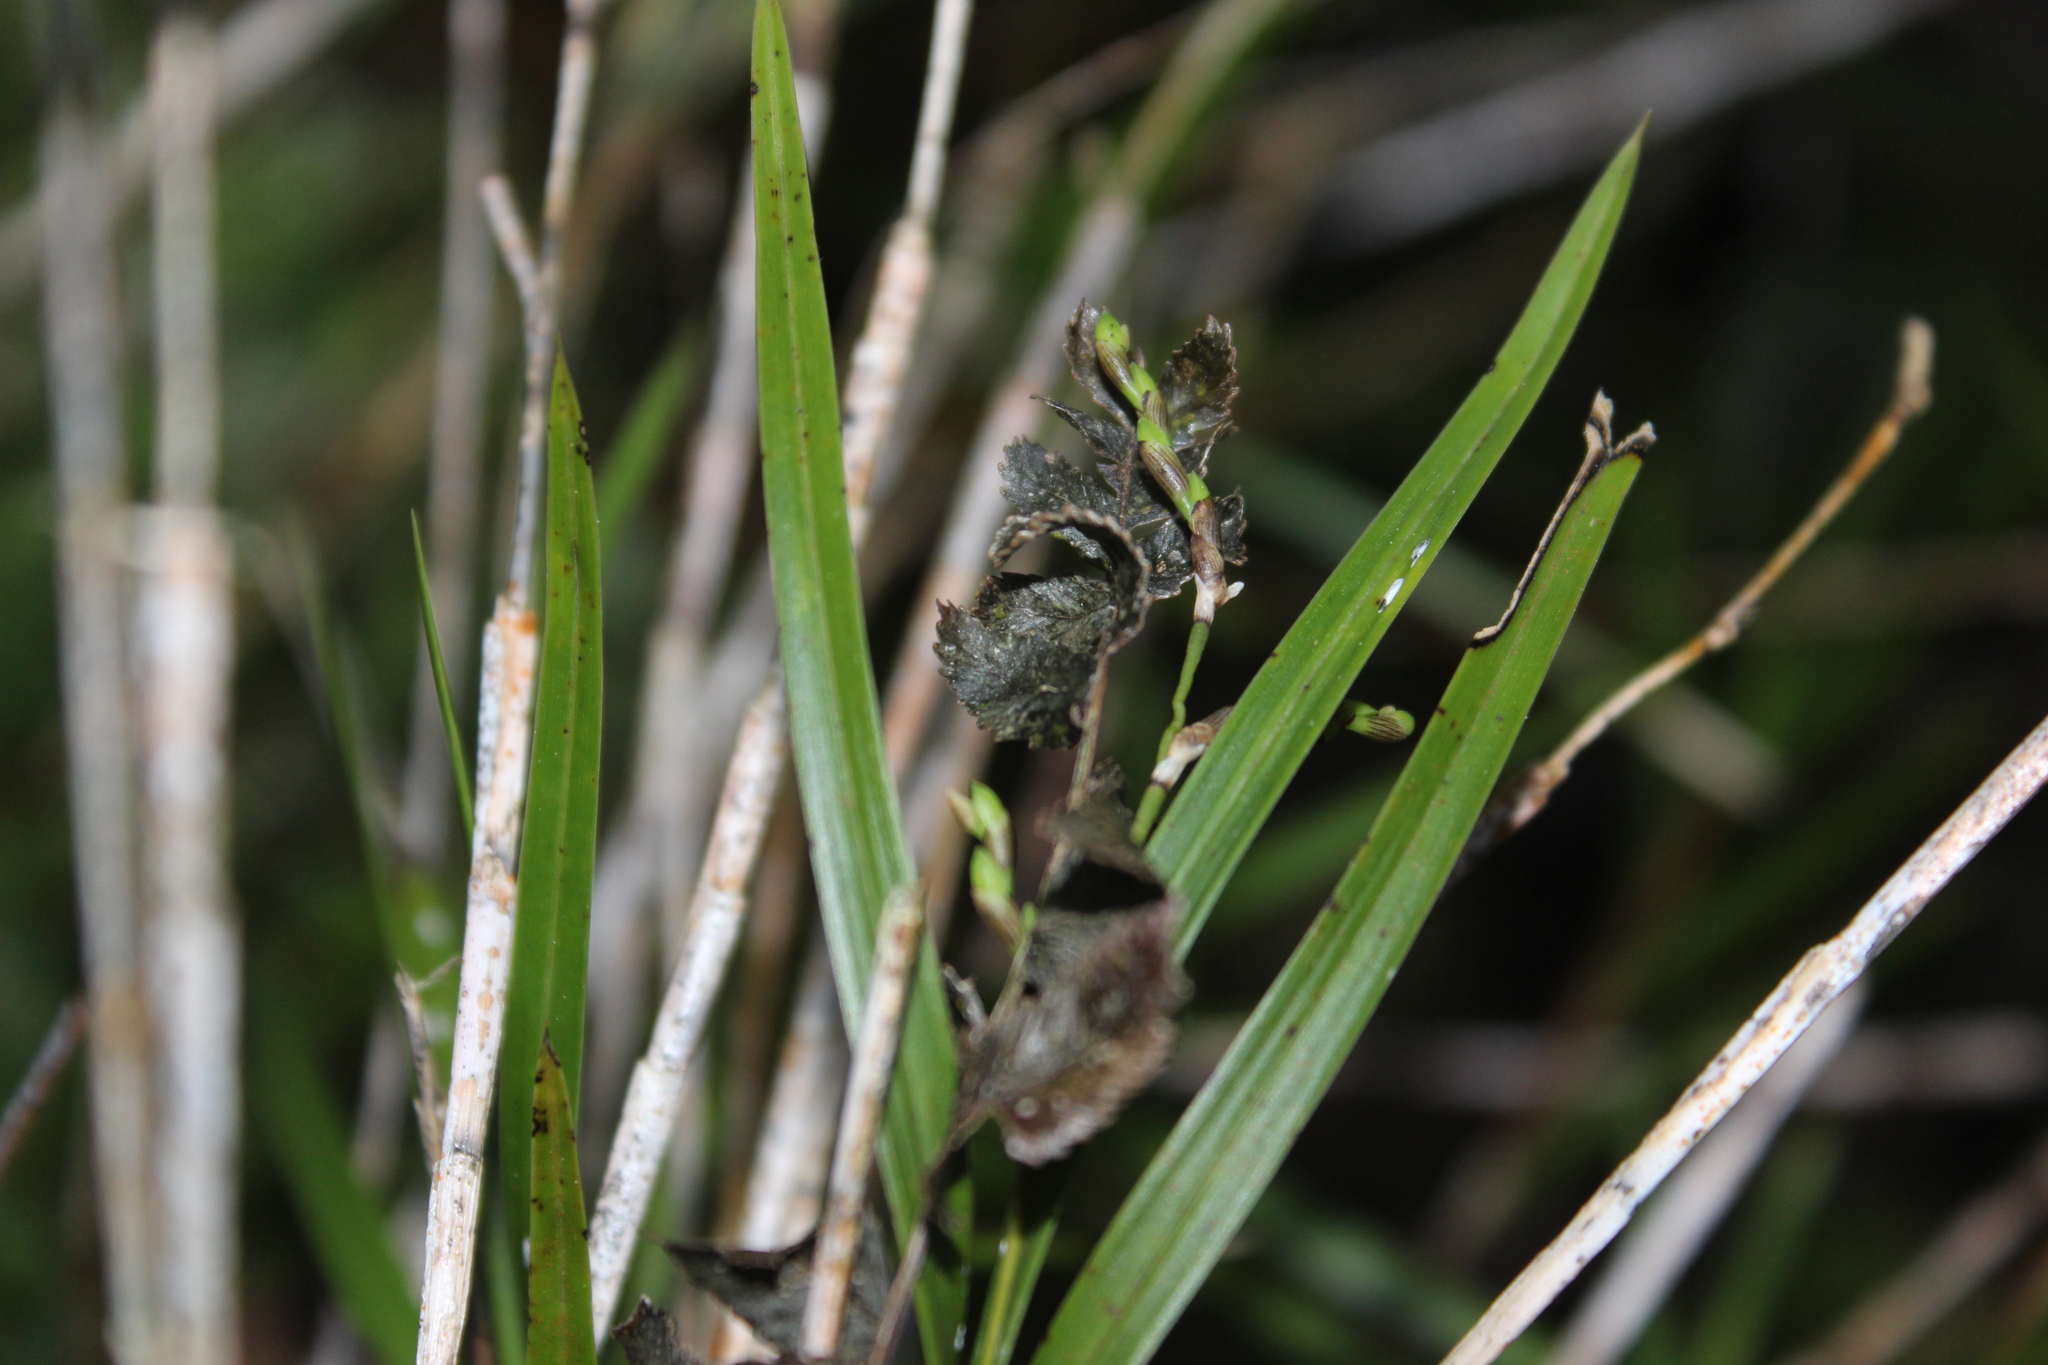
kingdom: Plantae
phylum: Tracheophyta
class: Liliopsida
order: Asparagales
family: Orchidaceae
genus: Earina
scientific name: Earina mucronata
